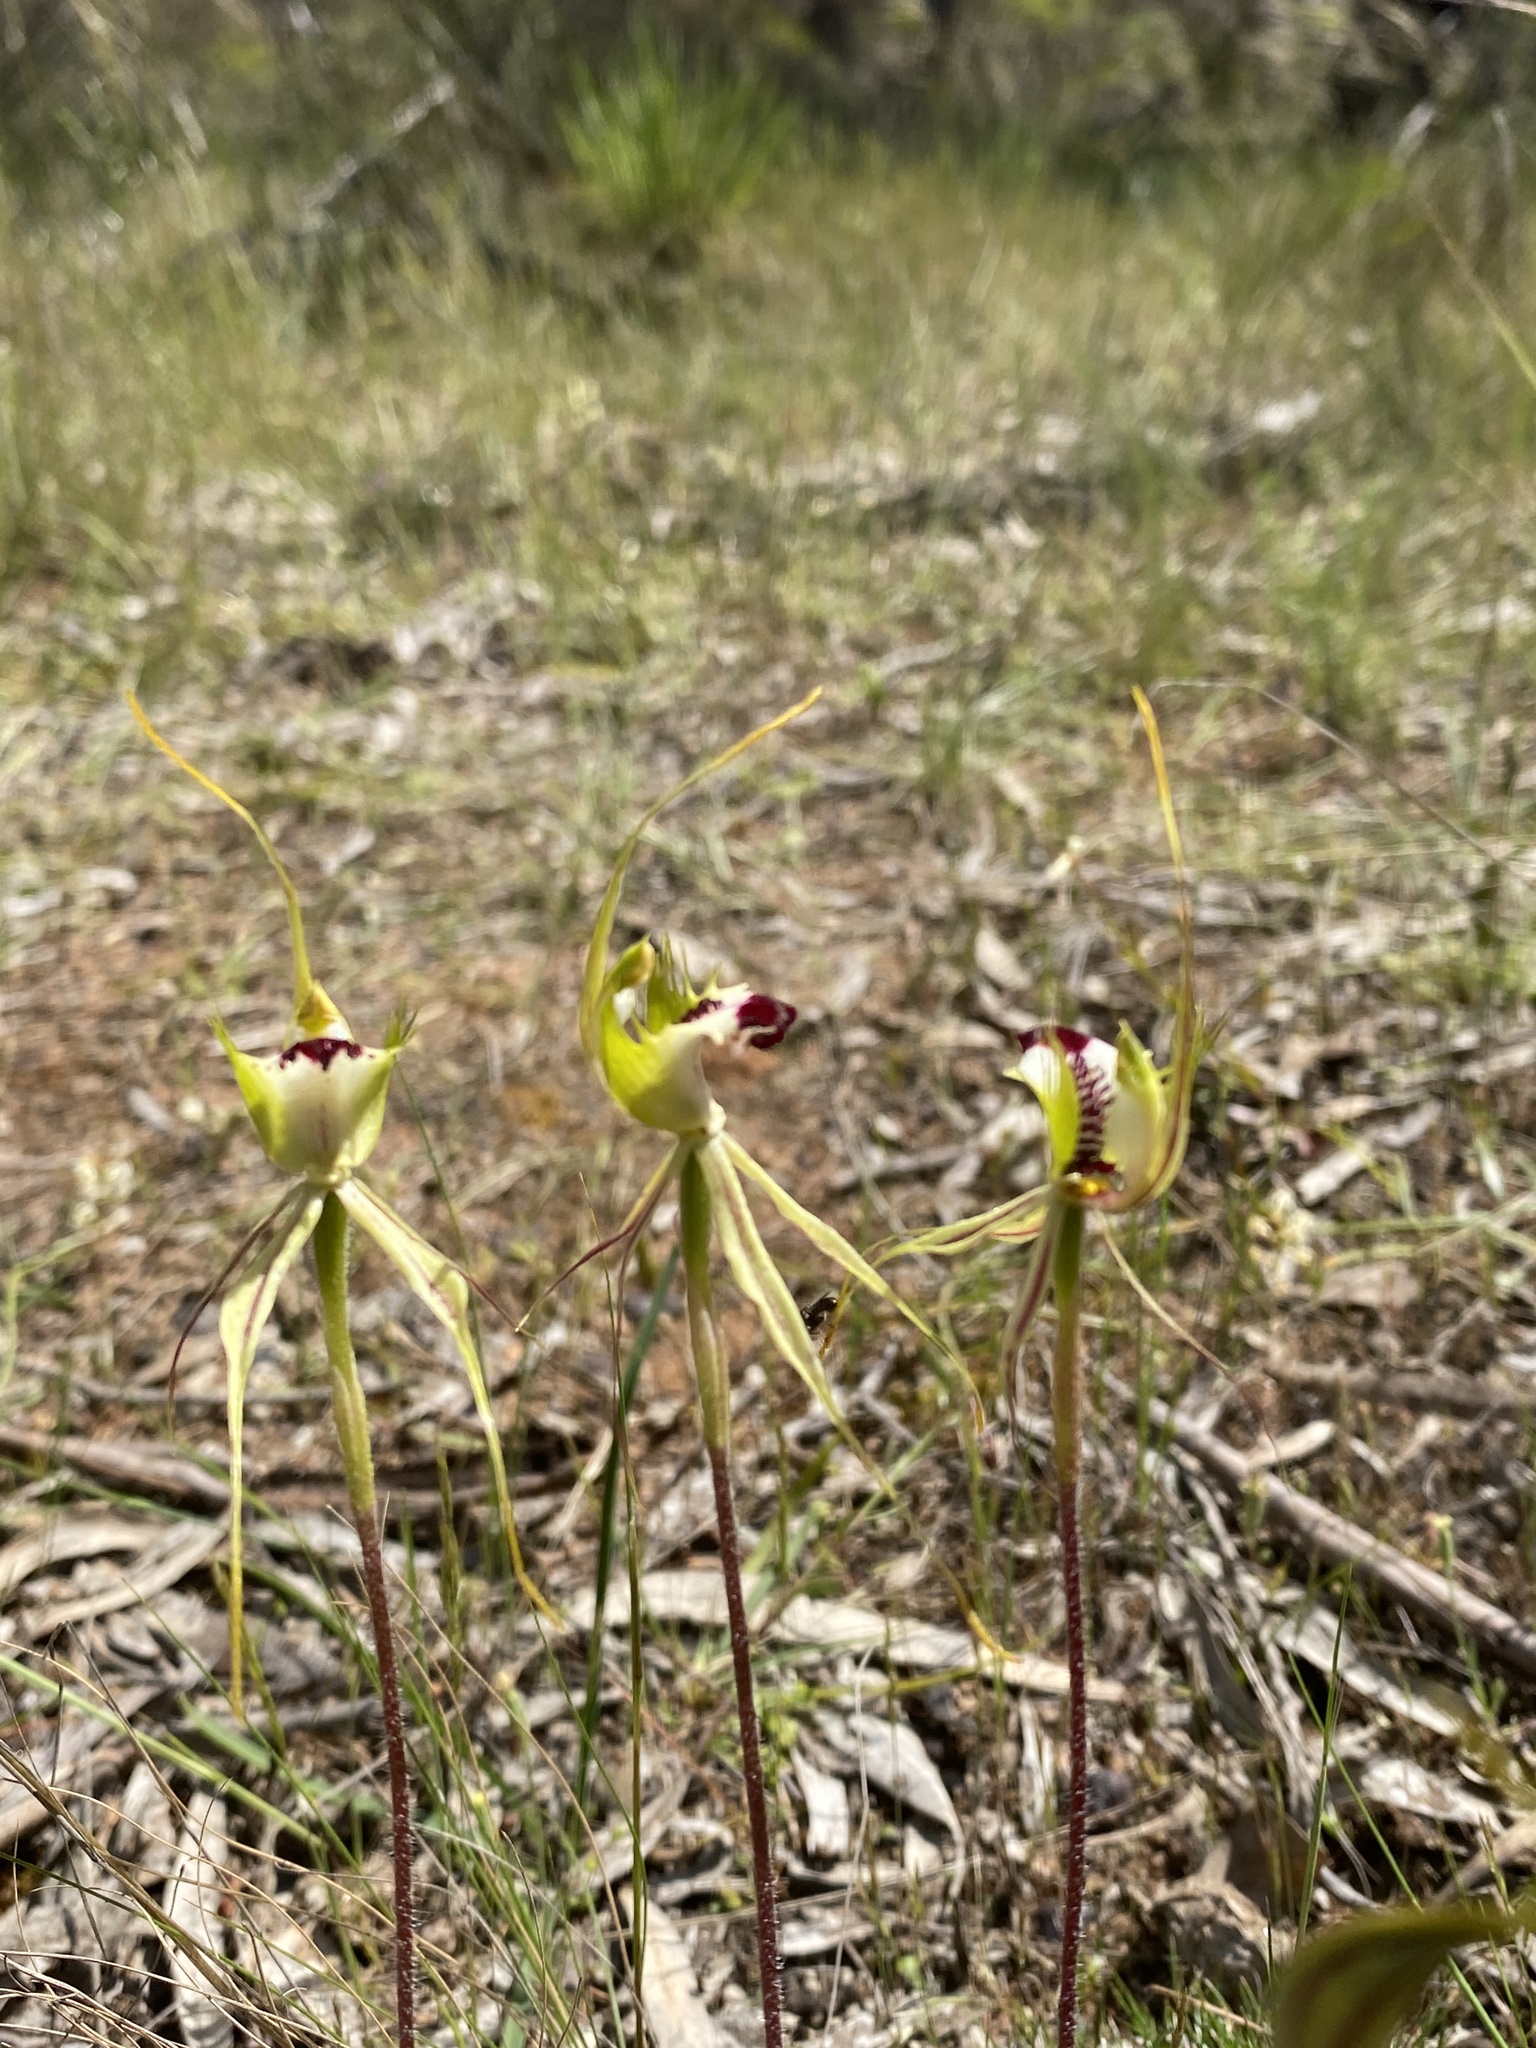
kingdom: Plantae
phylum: Tracheophyta
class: Liliopsida
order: Asparagales
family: Orchidaceae
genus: Caladenia
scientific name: Caladenia parva
